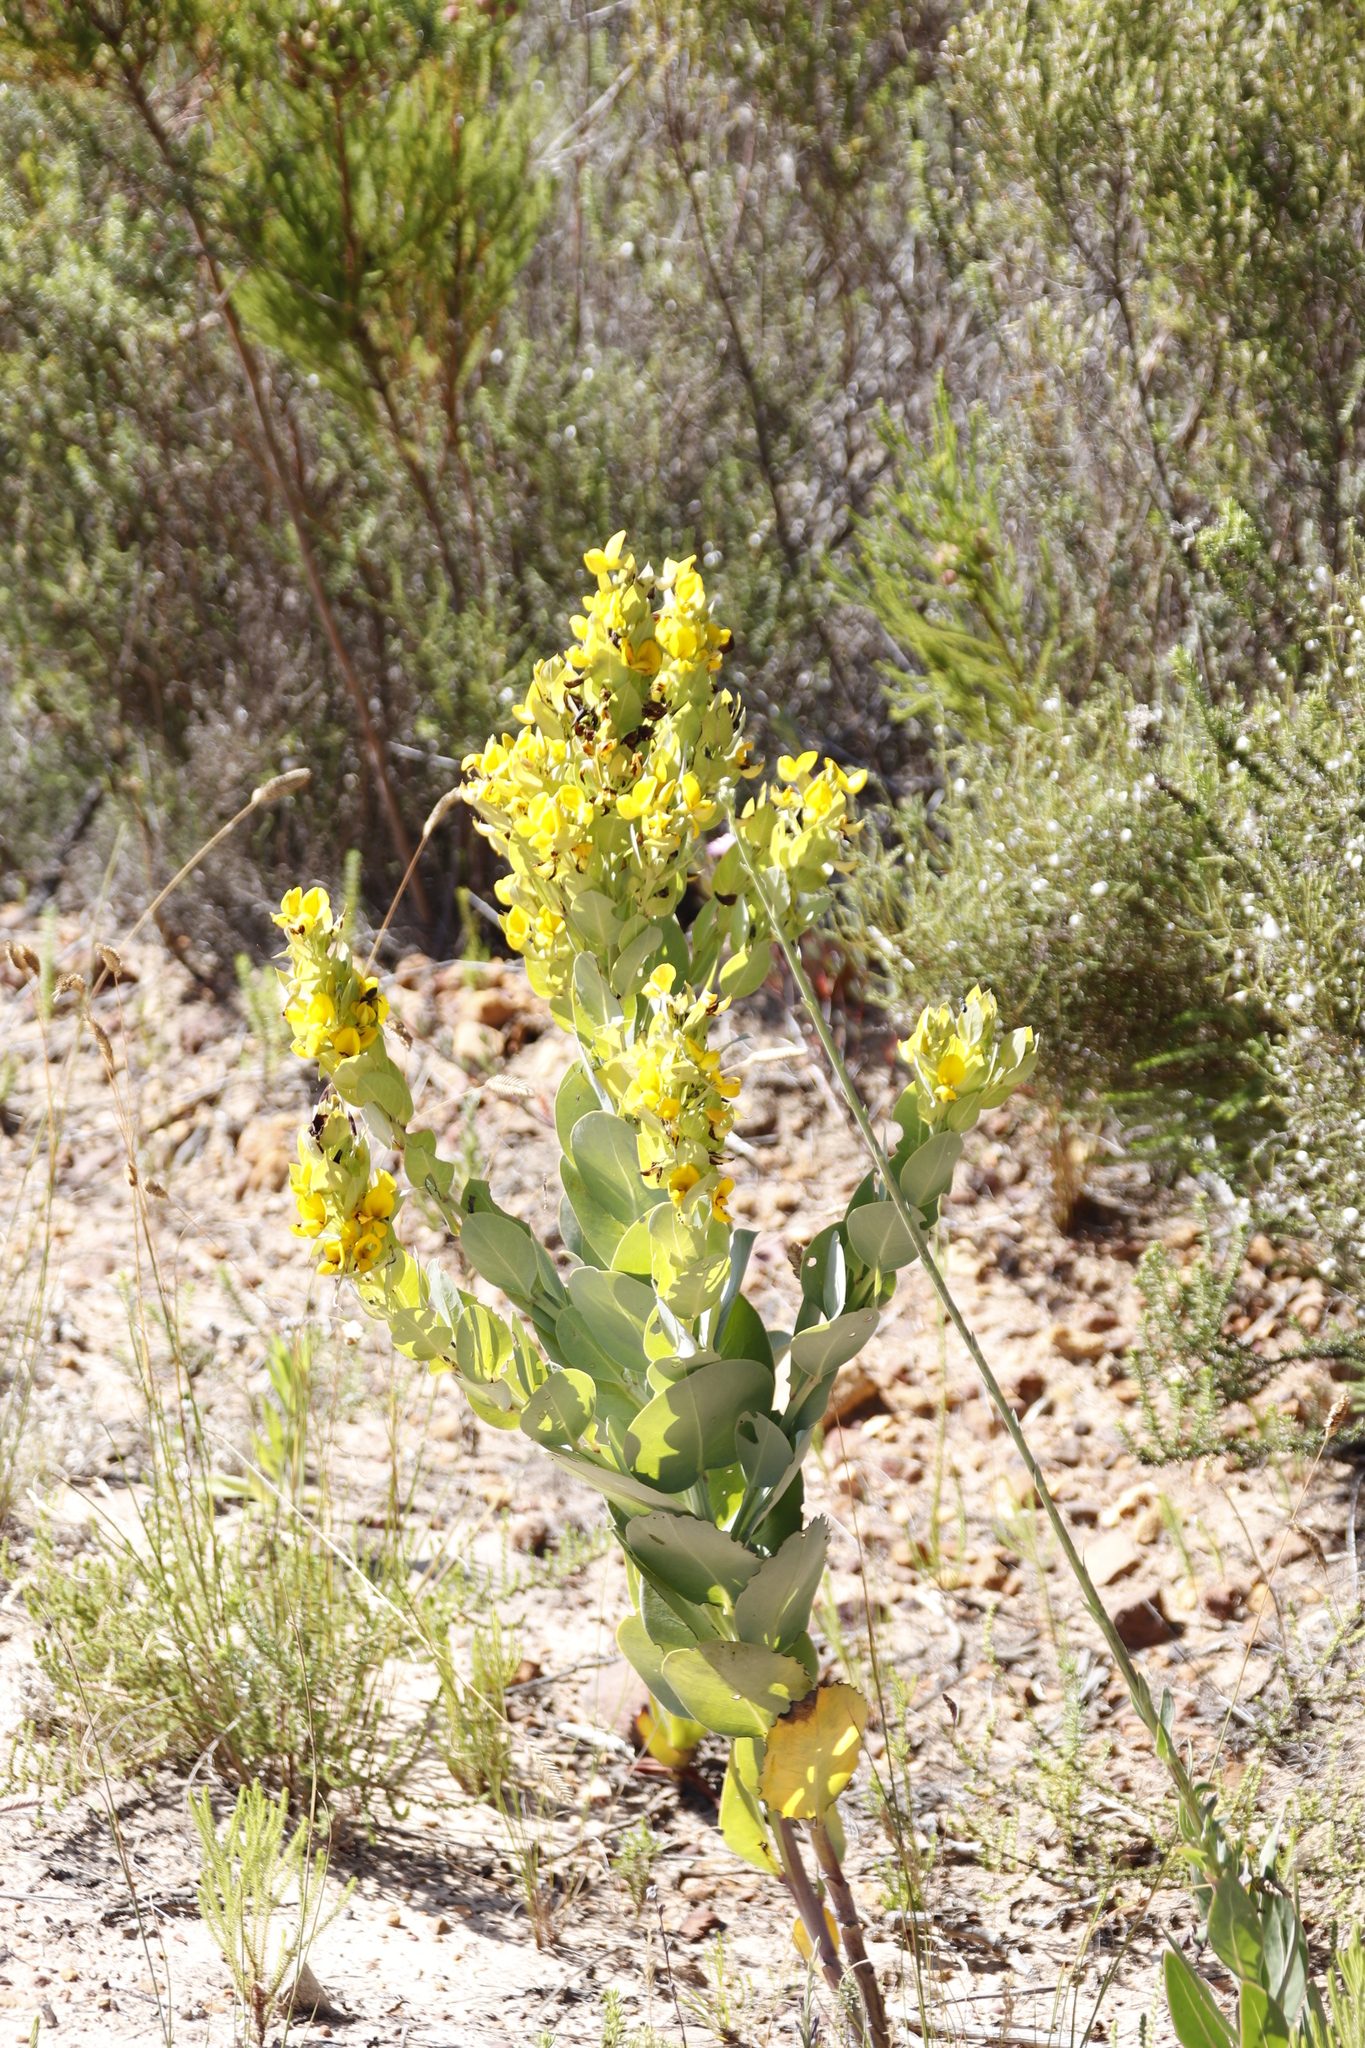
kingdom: Plantae
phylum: Tracheophyta
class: Magnoliopsida
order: Fabales
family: Fabaceae
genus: Rafnia
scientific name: Rafnia triflora
